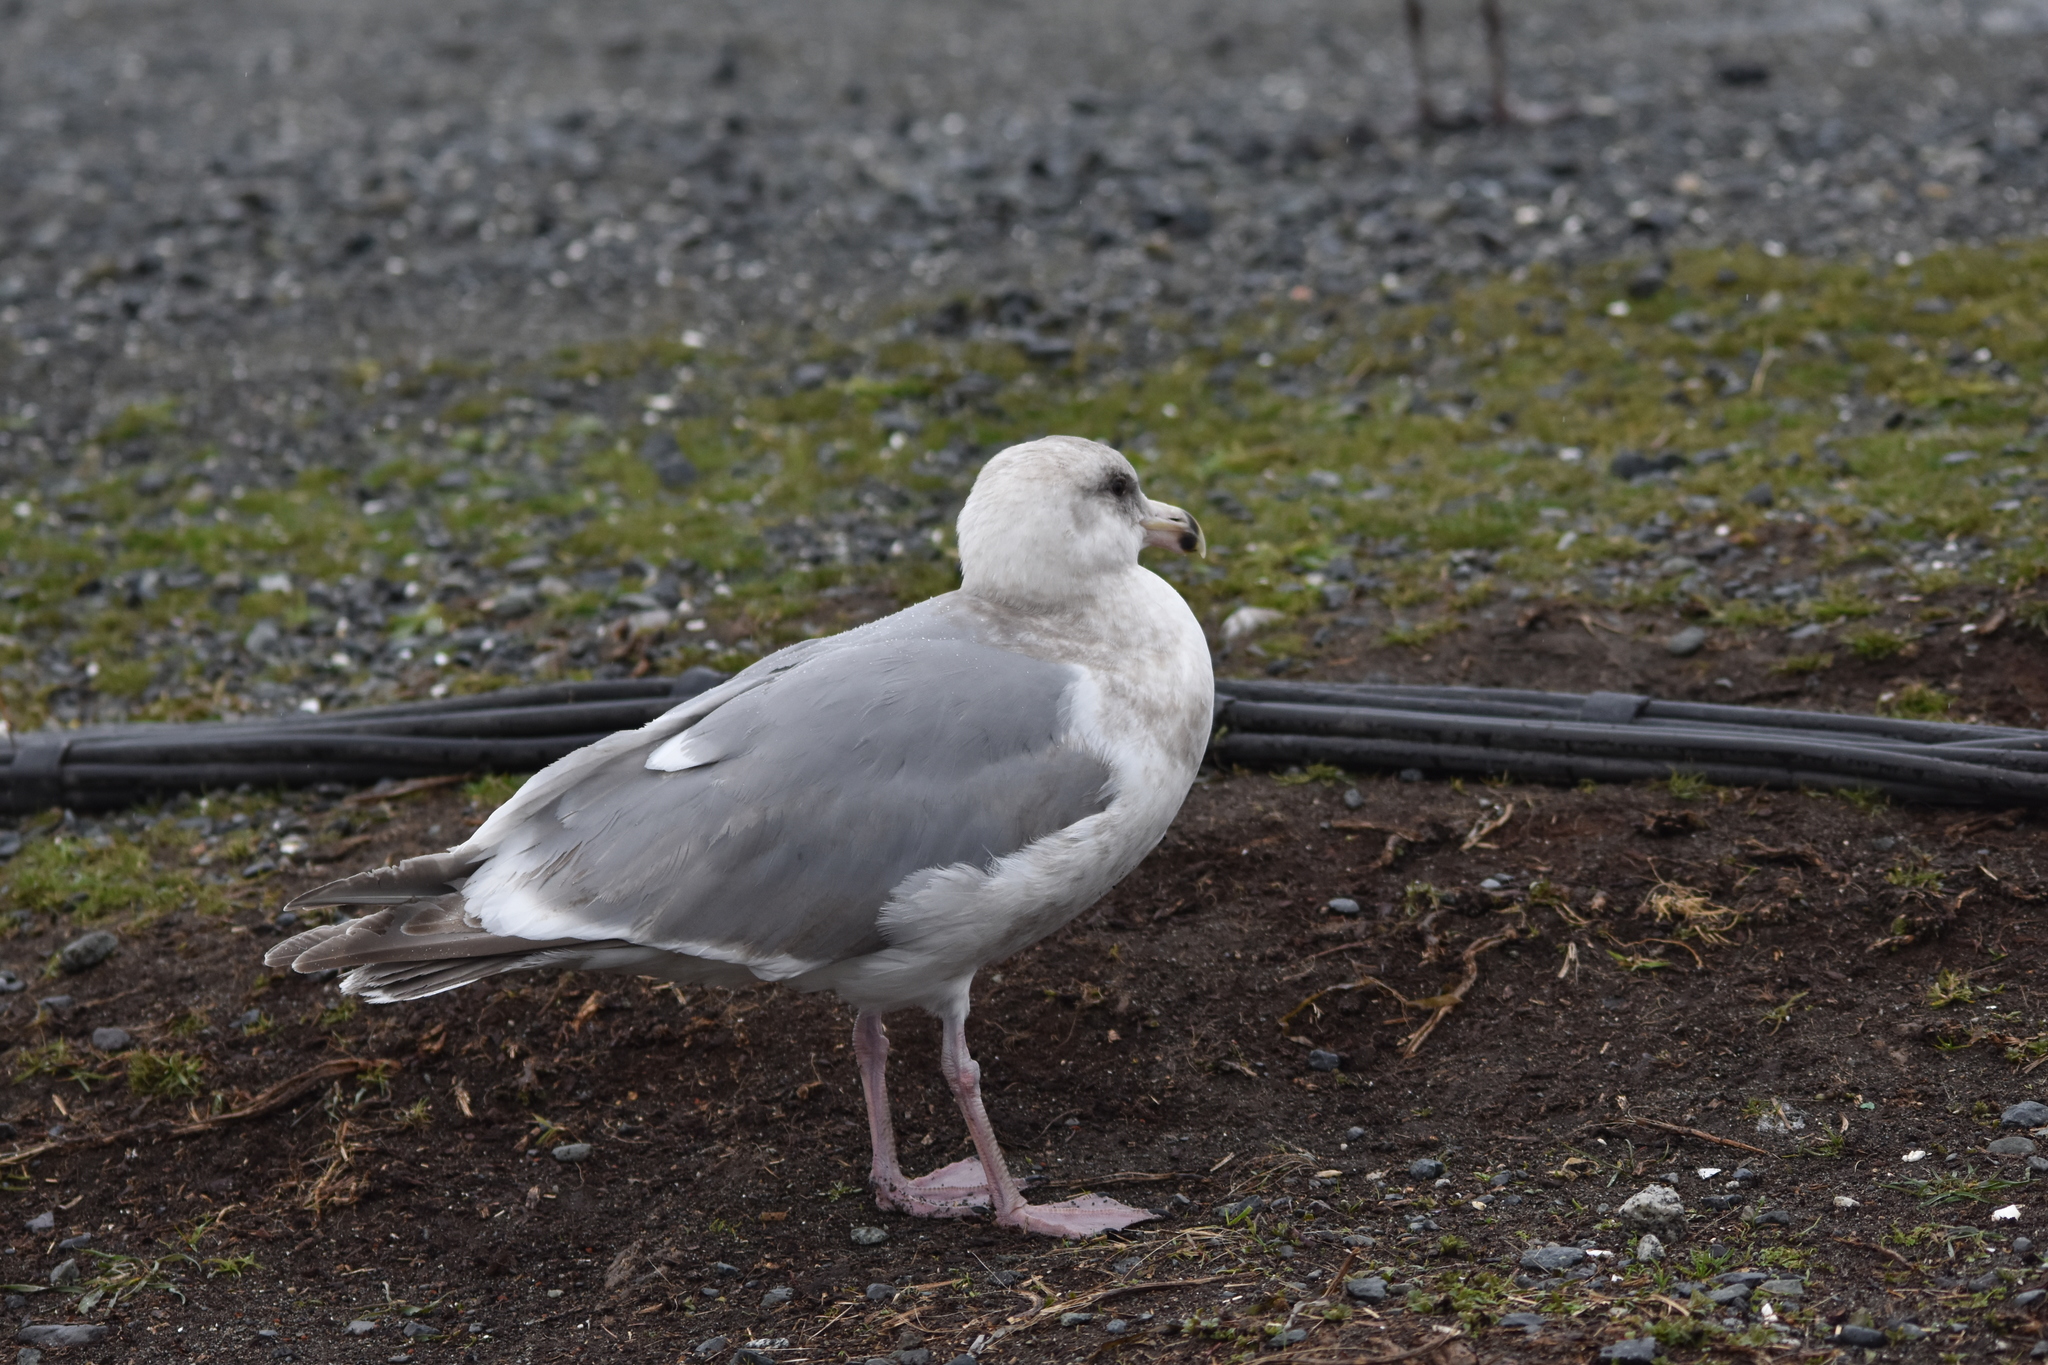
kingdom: Animalia
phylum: Chordata
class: Aves
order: Charadriiformes
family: Laridae
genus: Larus
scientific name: Larus
